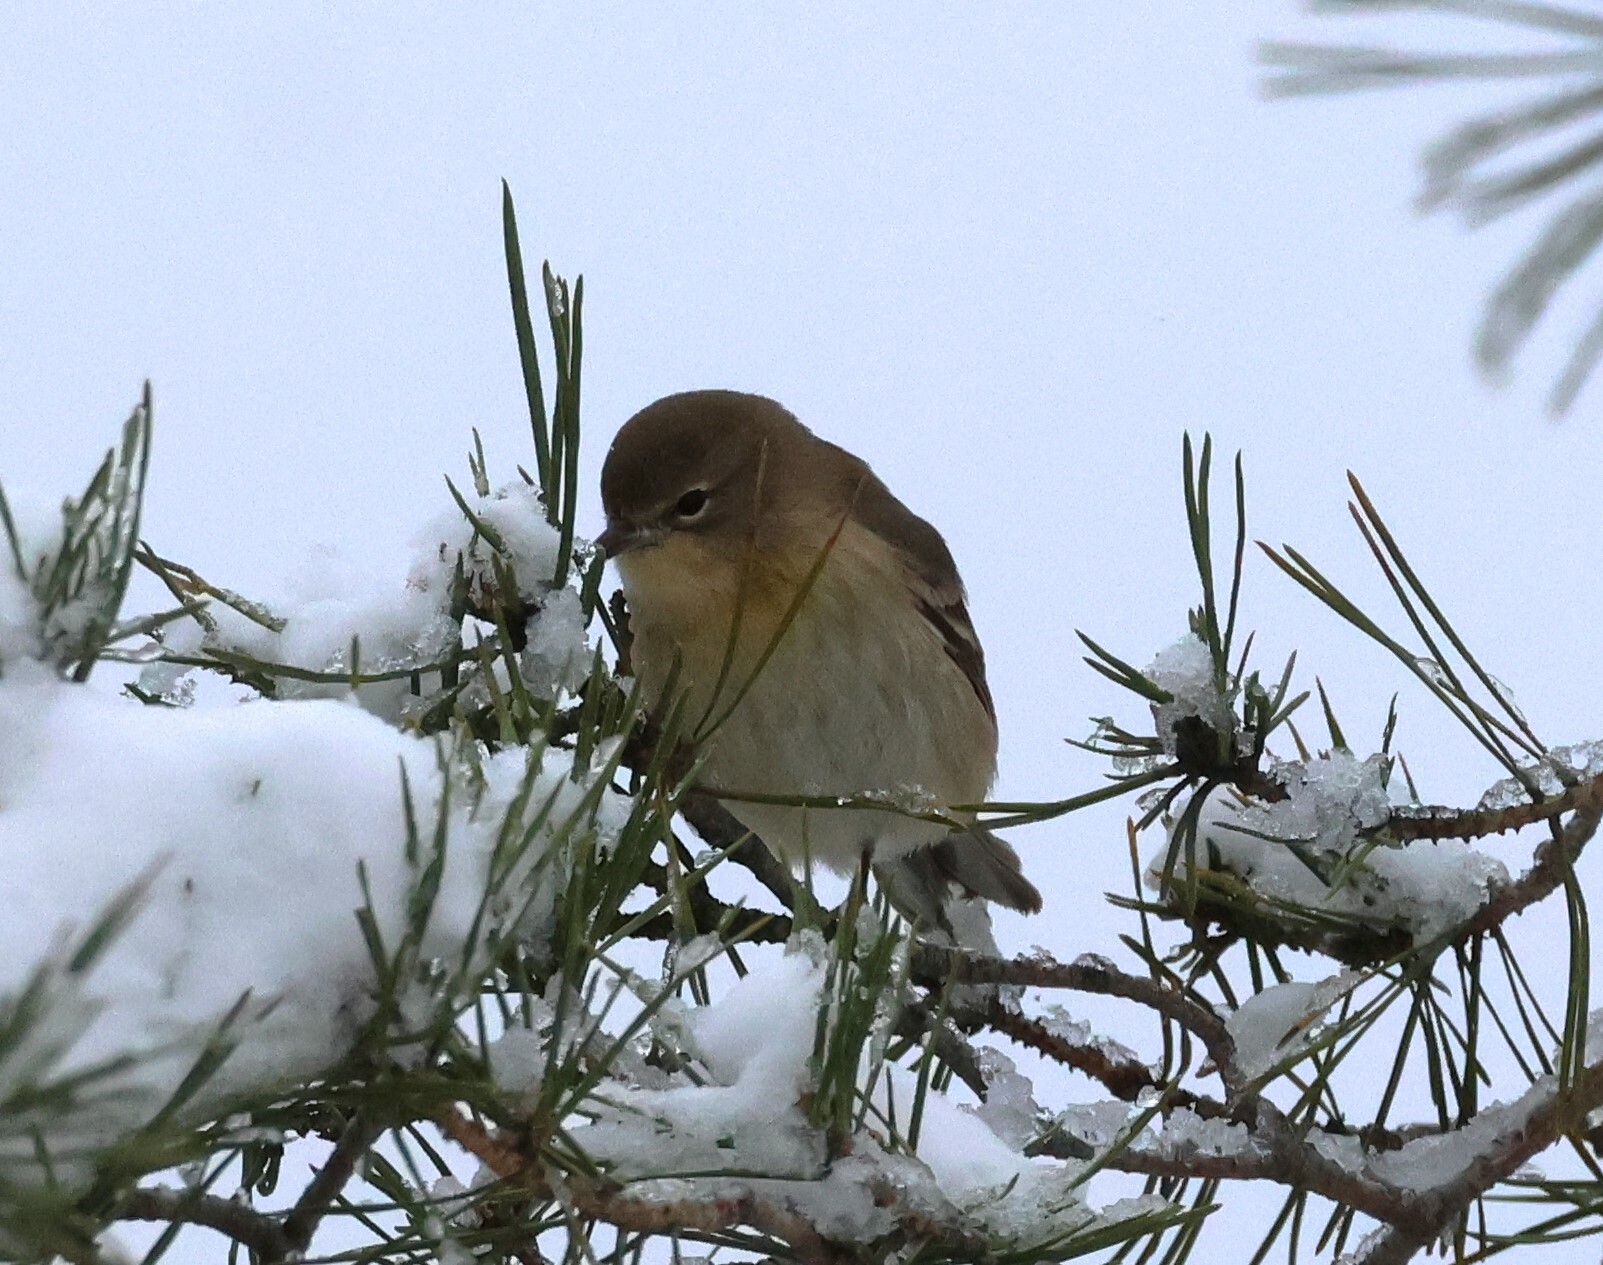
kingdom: Animalia
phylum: Chordata
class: Aves
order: Passeriformes
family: Parulidae
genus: Setophaga
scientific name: Setophaga pinus
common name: Pine warbler
